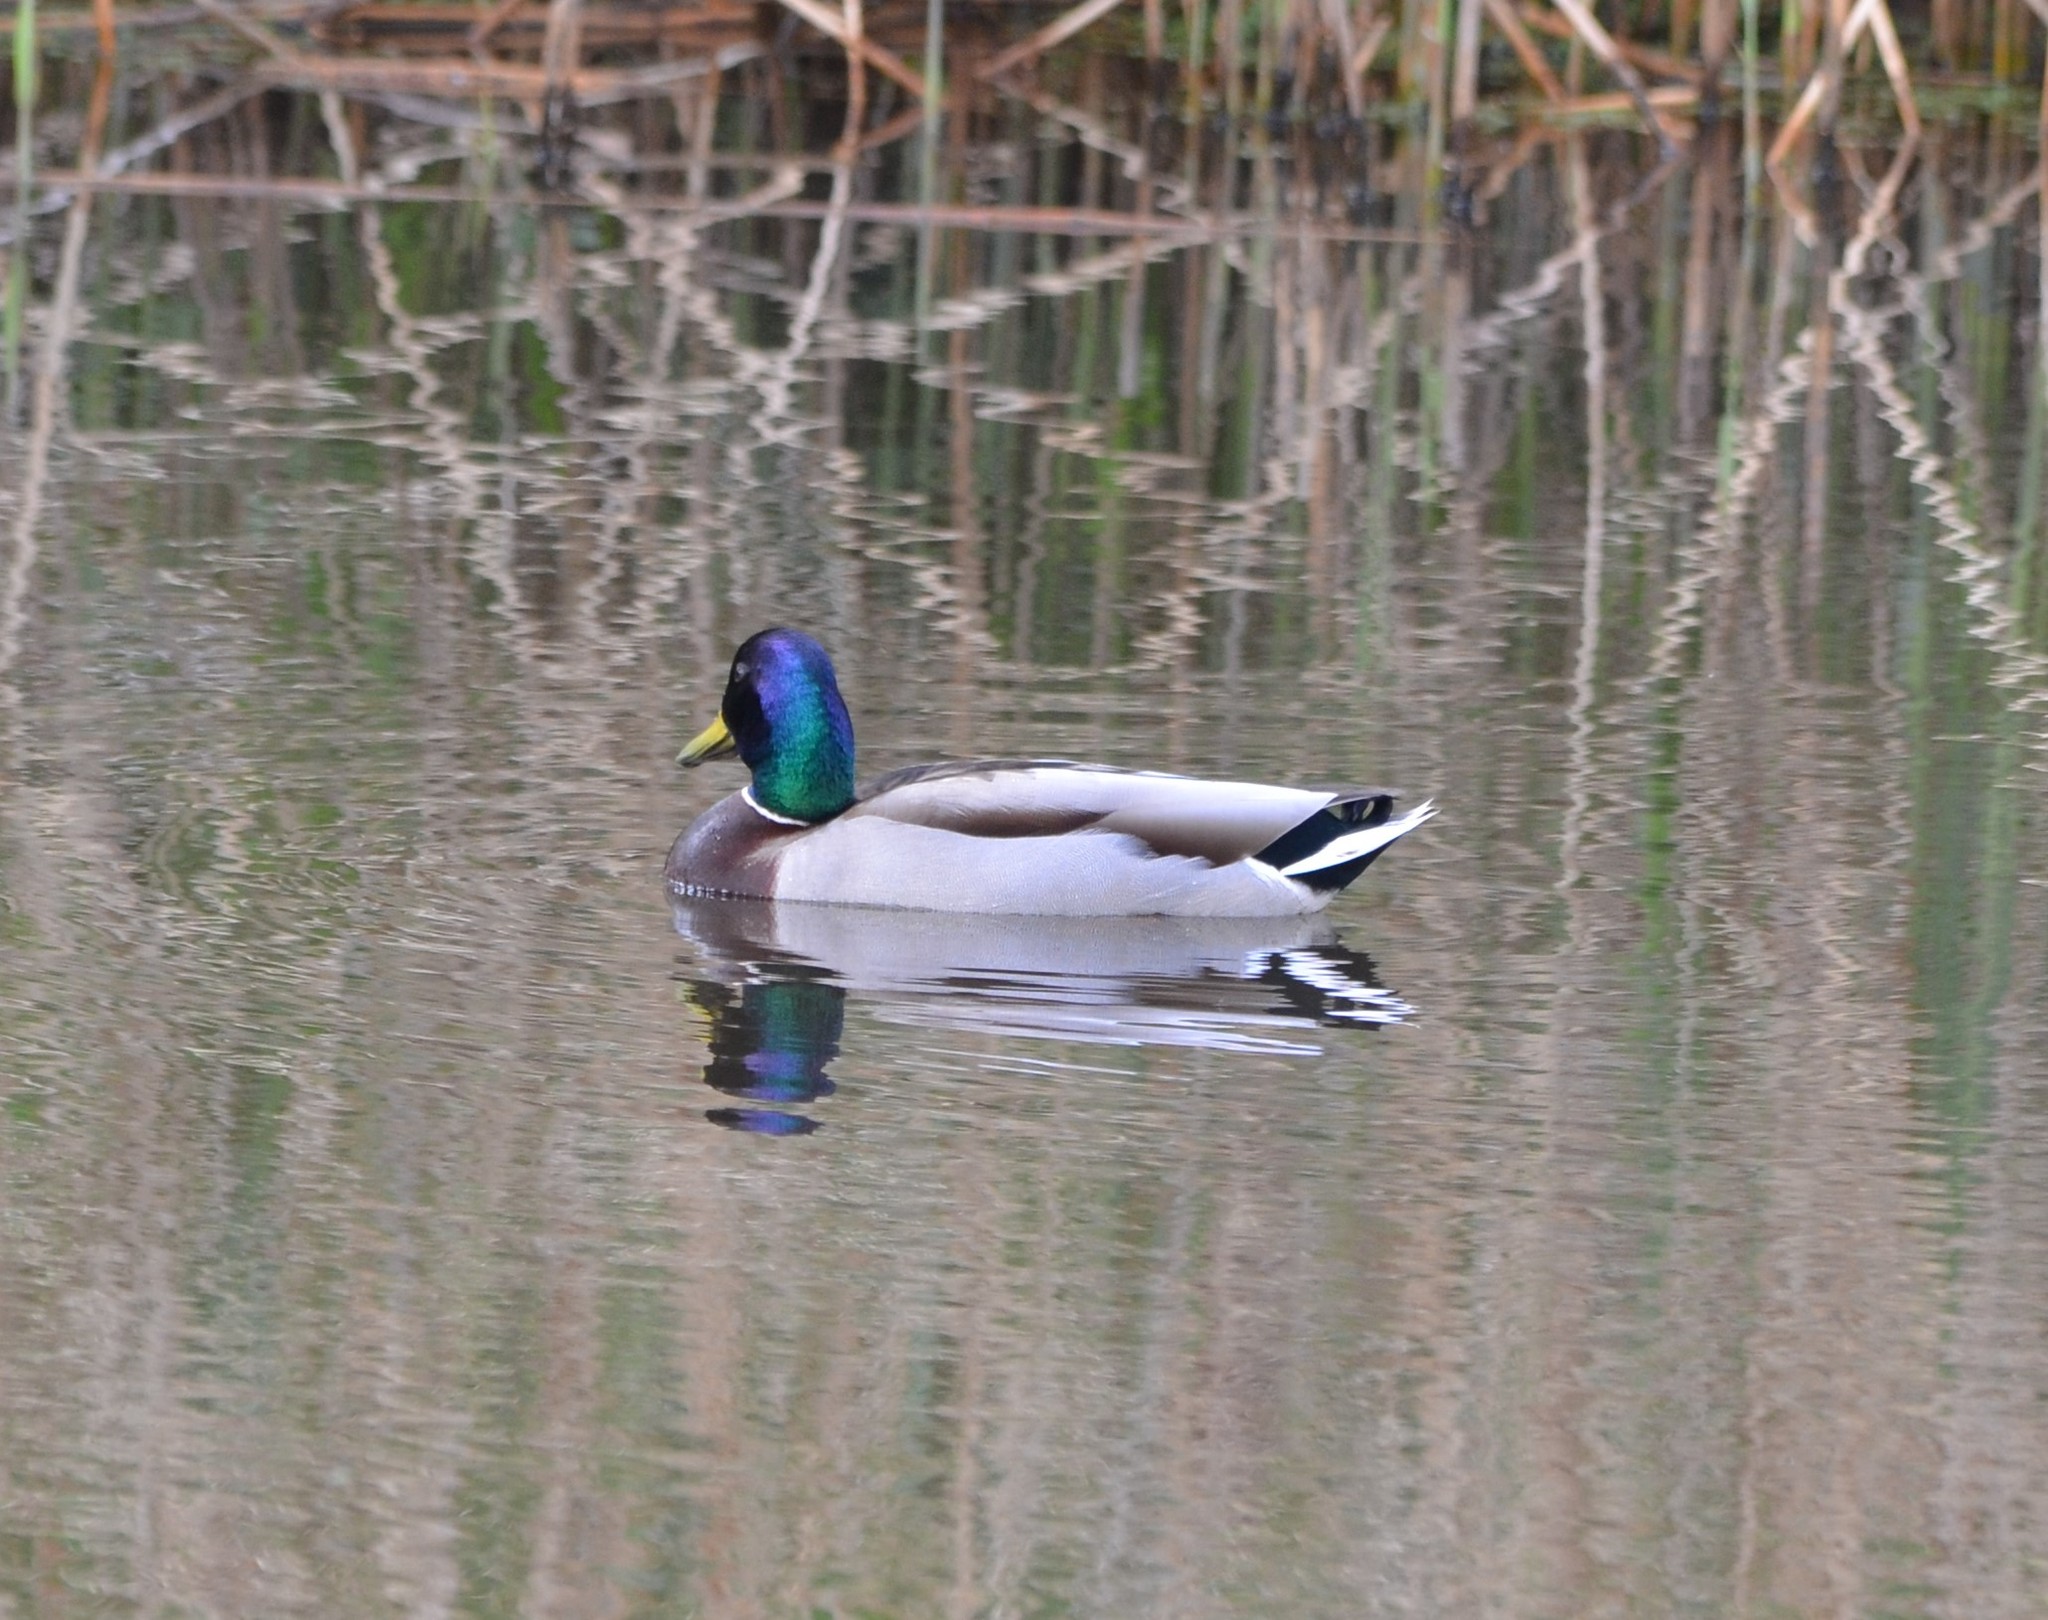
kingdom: Animalia
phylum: Chordata
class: Aves
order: Anseriformes
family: Anatidae
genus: Anas
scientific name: Anas platyrhynchos
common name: Mallard
